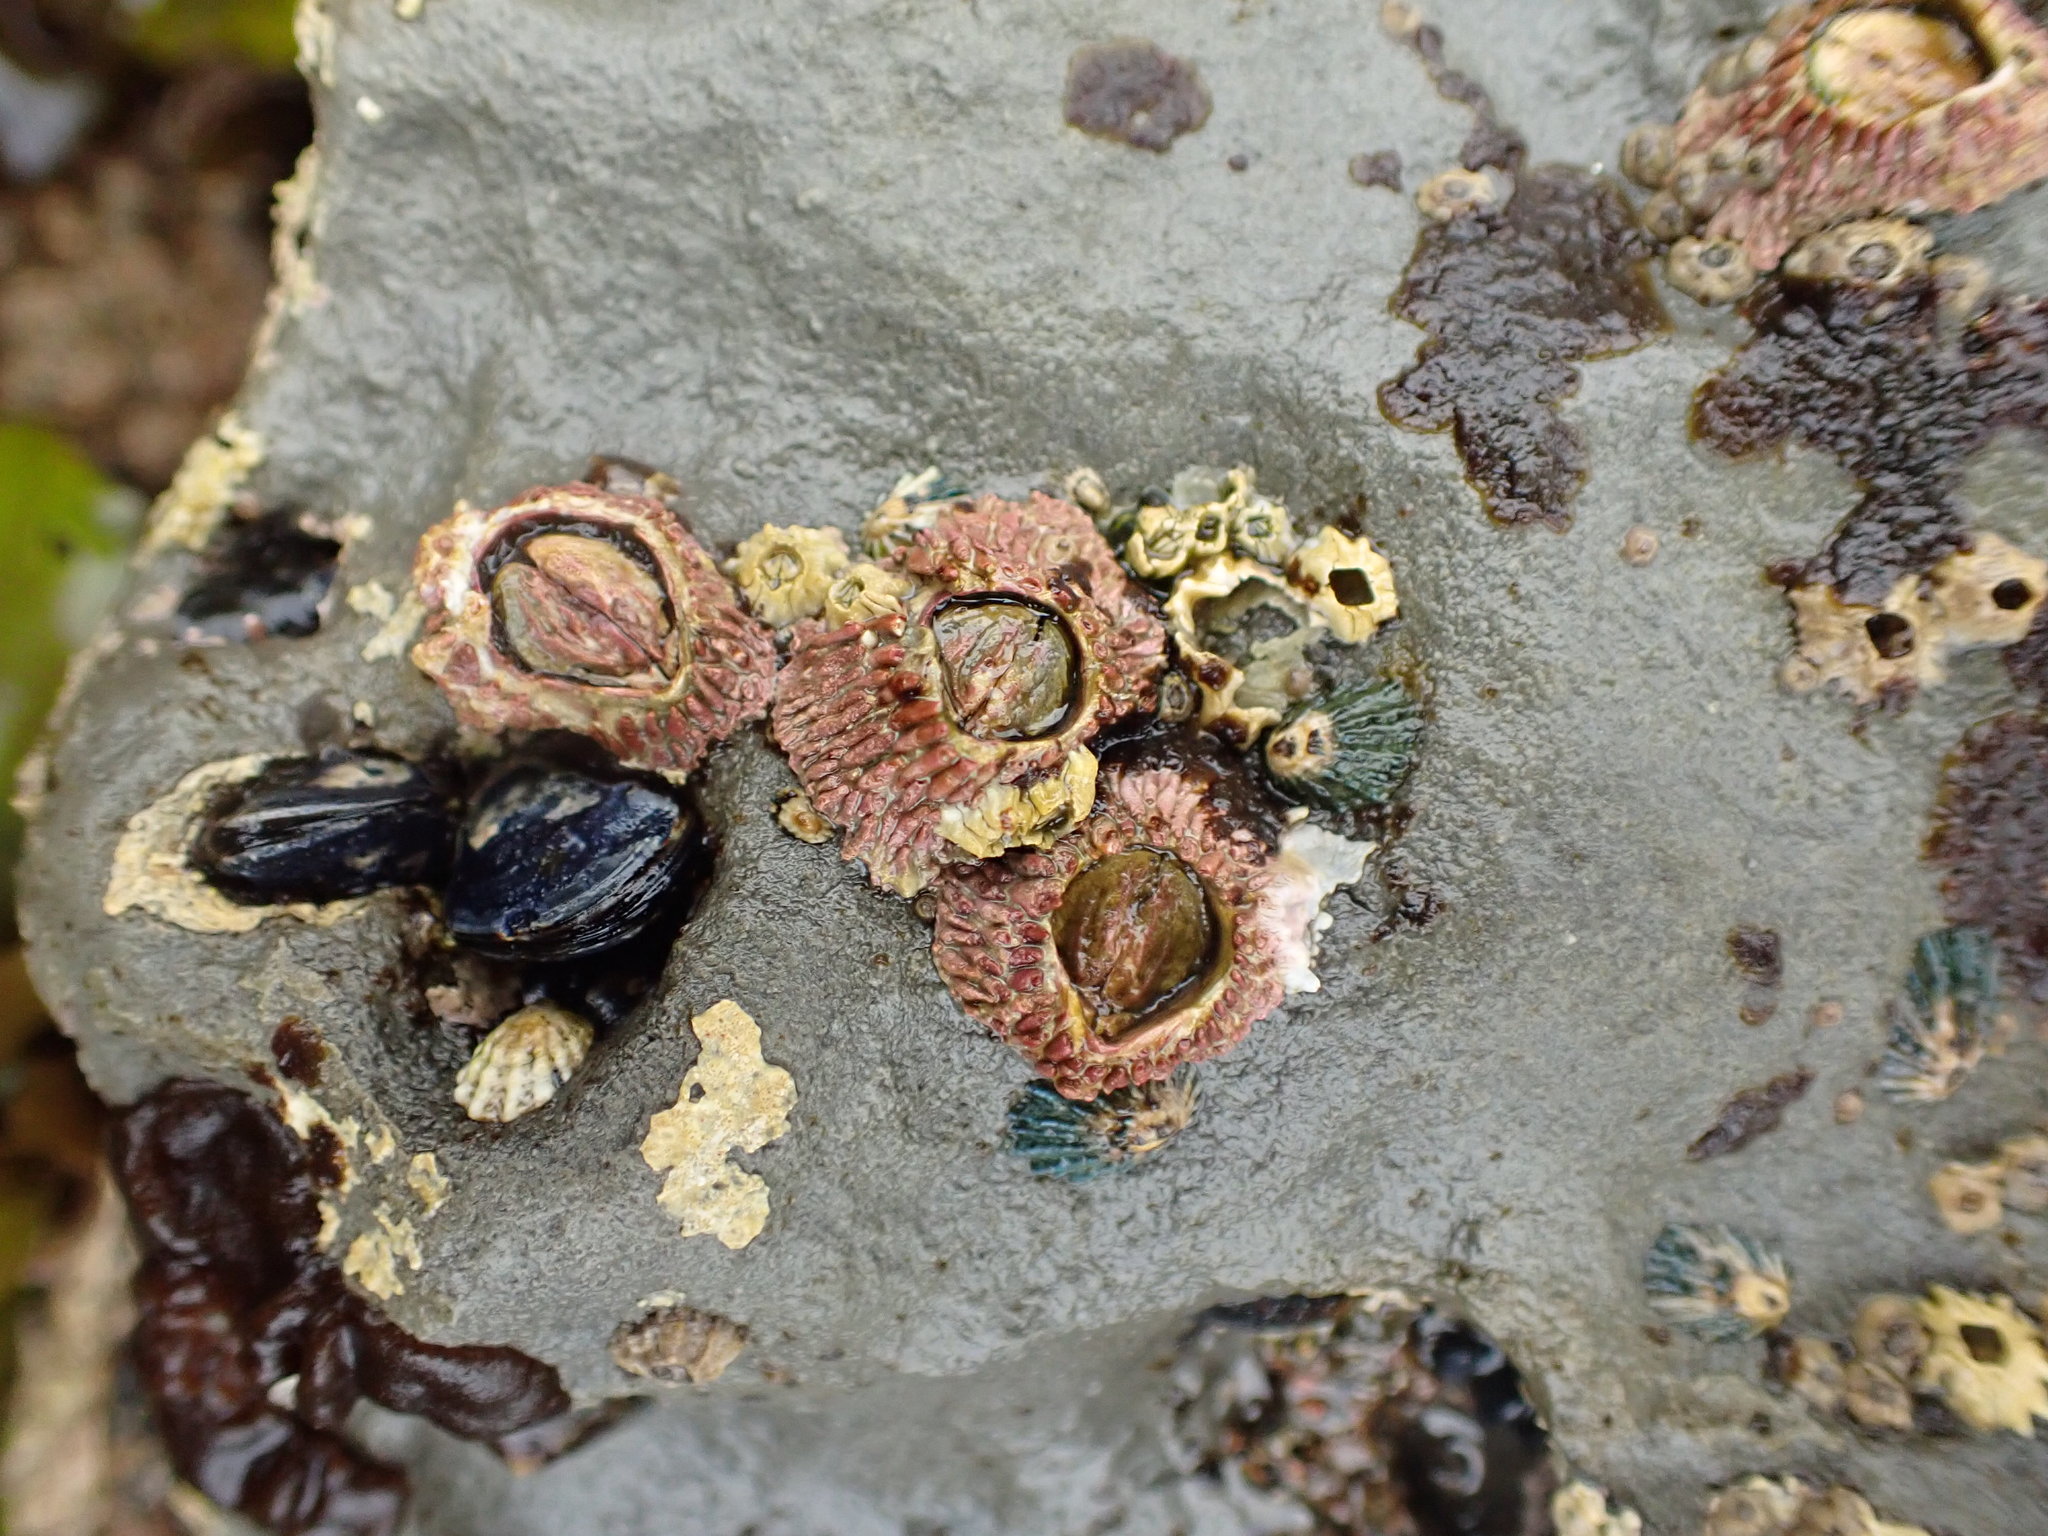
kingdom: Animalia
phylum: Arthropoda
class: Maxillopoda
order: Sessilia
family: Tetraclitidae
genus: Tetraclita
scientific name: Tetraclita rubescens
